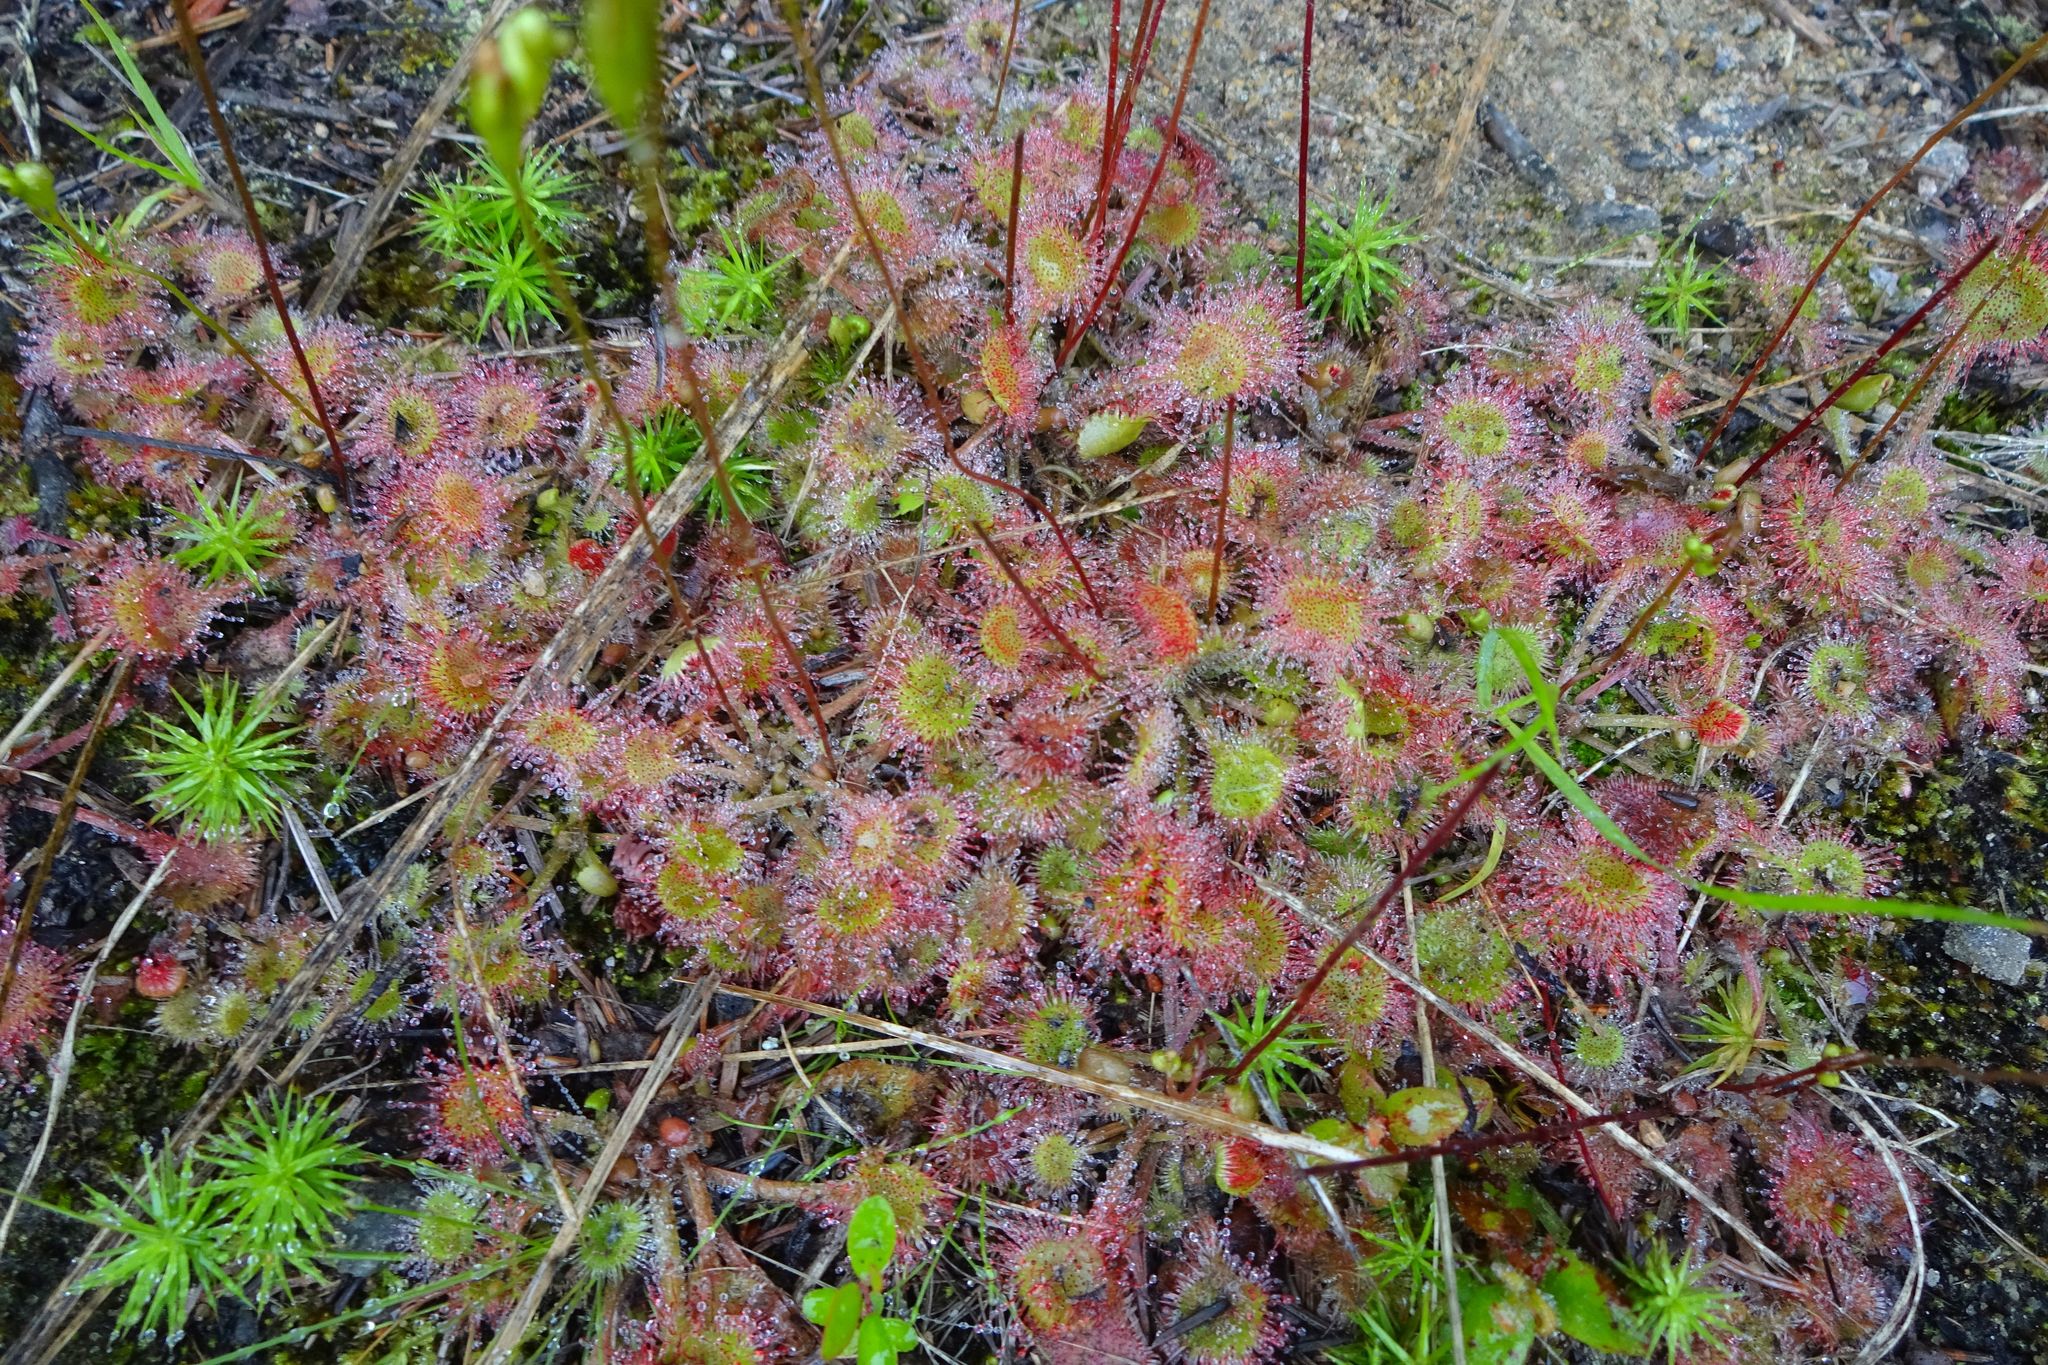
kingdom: Plantae
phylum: Tracheophyta
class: Magnoliopsida
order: Caryophyllales
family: Droseraceae
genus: Drosera
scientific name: Drosera rotundifolia
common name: Round-leaved sundew
